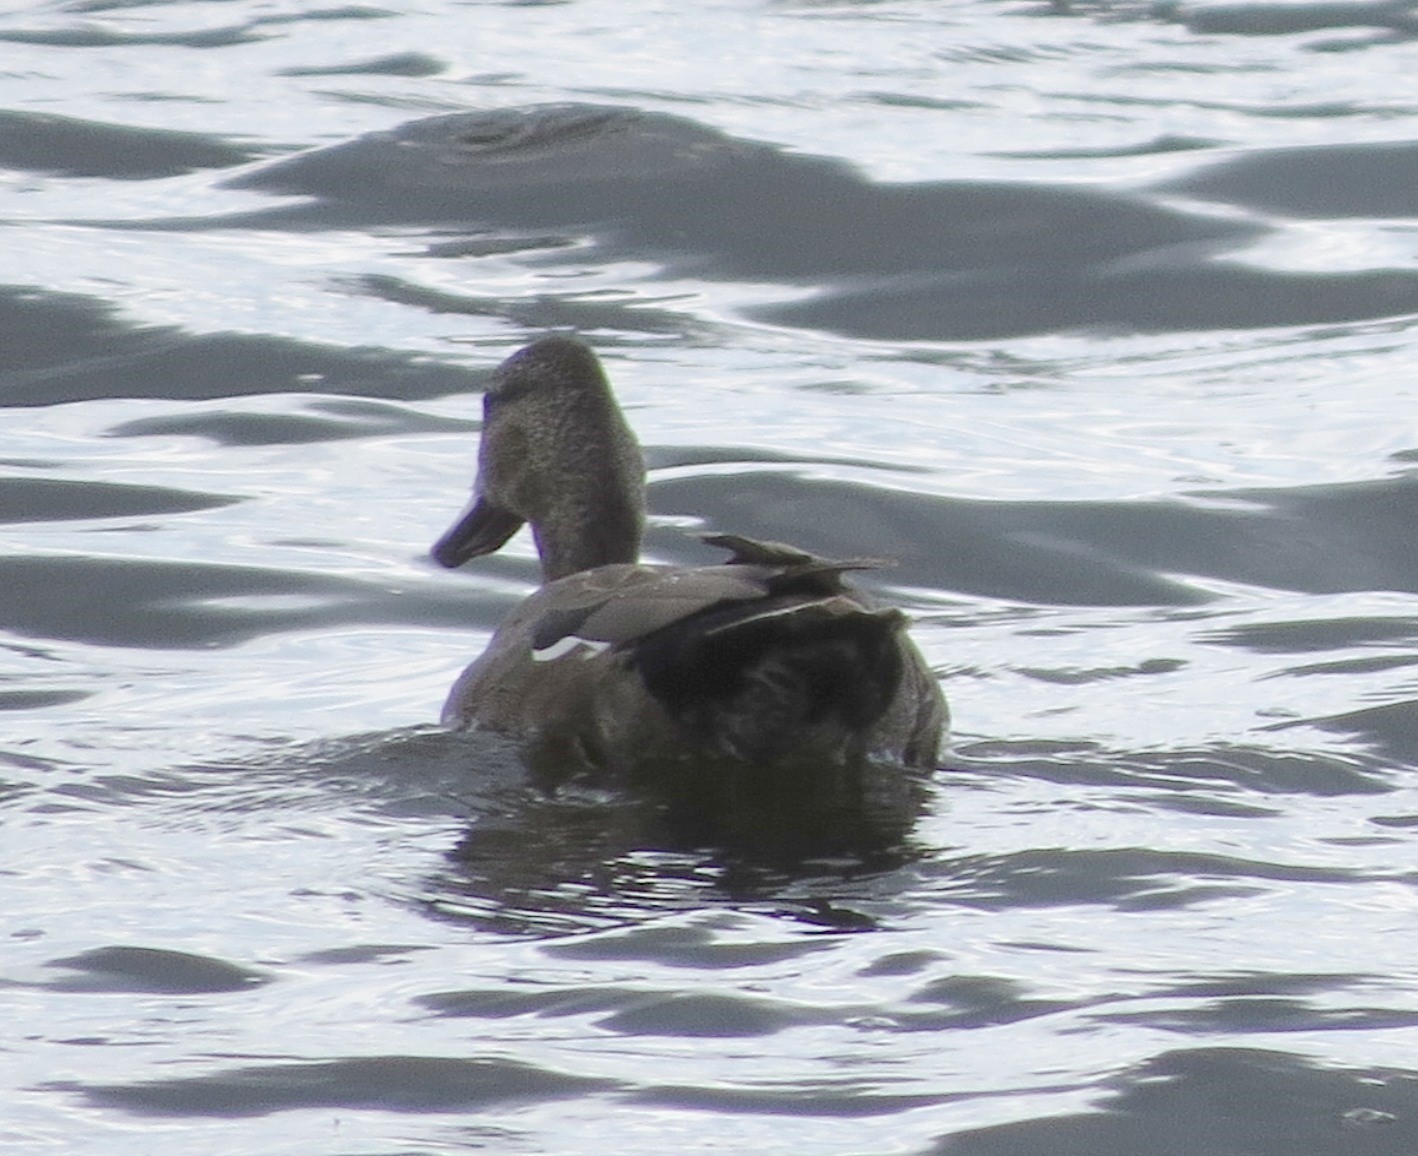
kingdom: Animalia
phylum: Chordata
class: Aves
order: Anseriformes
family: Anatidae
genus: Mareca
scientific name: Mareca strepera
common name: Gadwall
